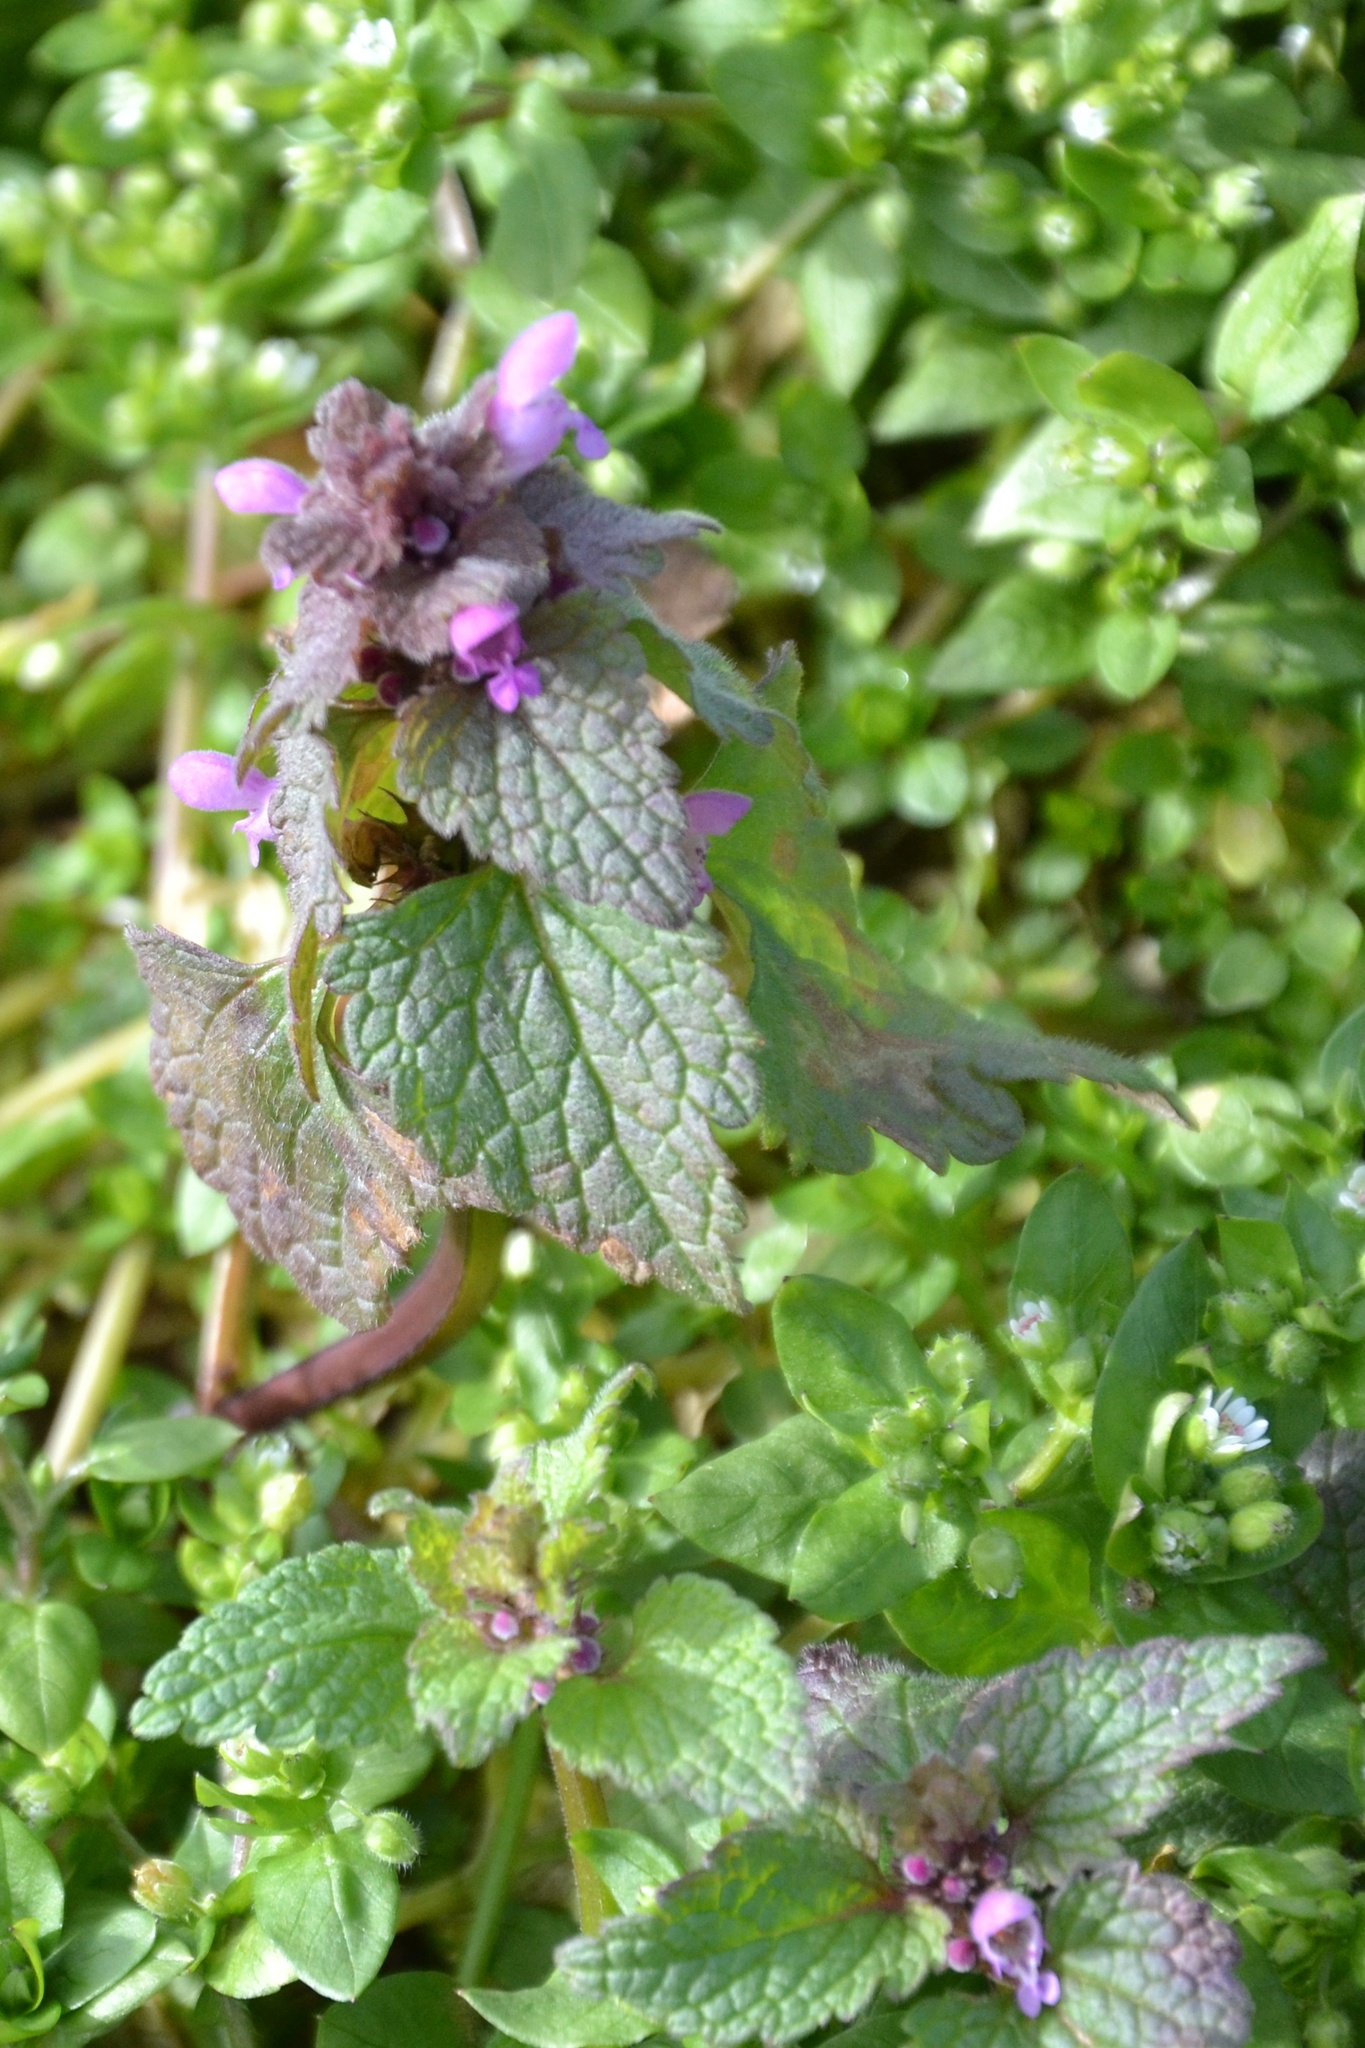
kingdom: Plantae
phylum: Tracheophyta
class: Magnoliopsida
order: Lamiales
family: Lamiaceae
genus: Lamium
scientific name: Lamium purpureum
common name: Red dead-nettle
